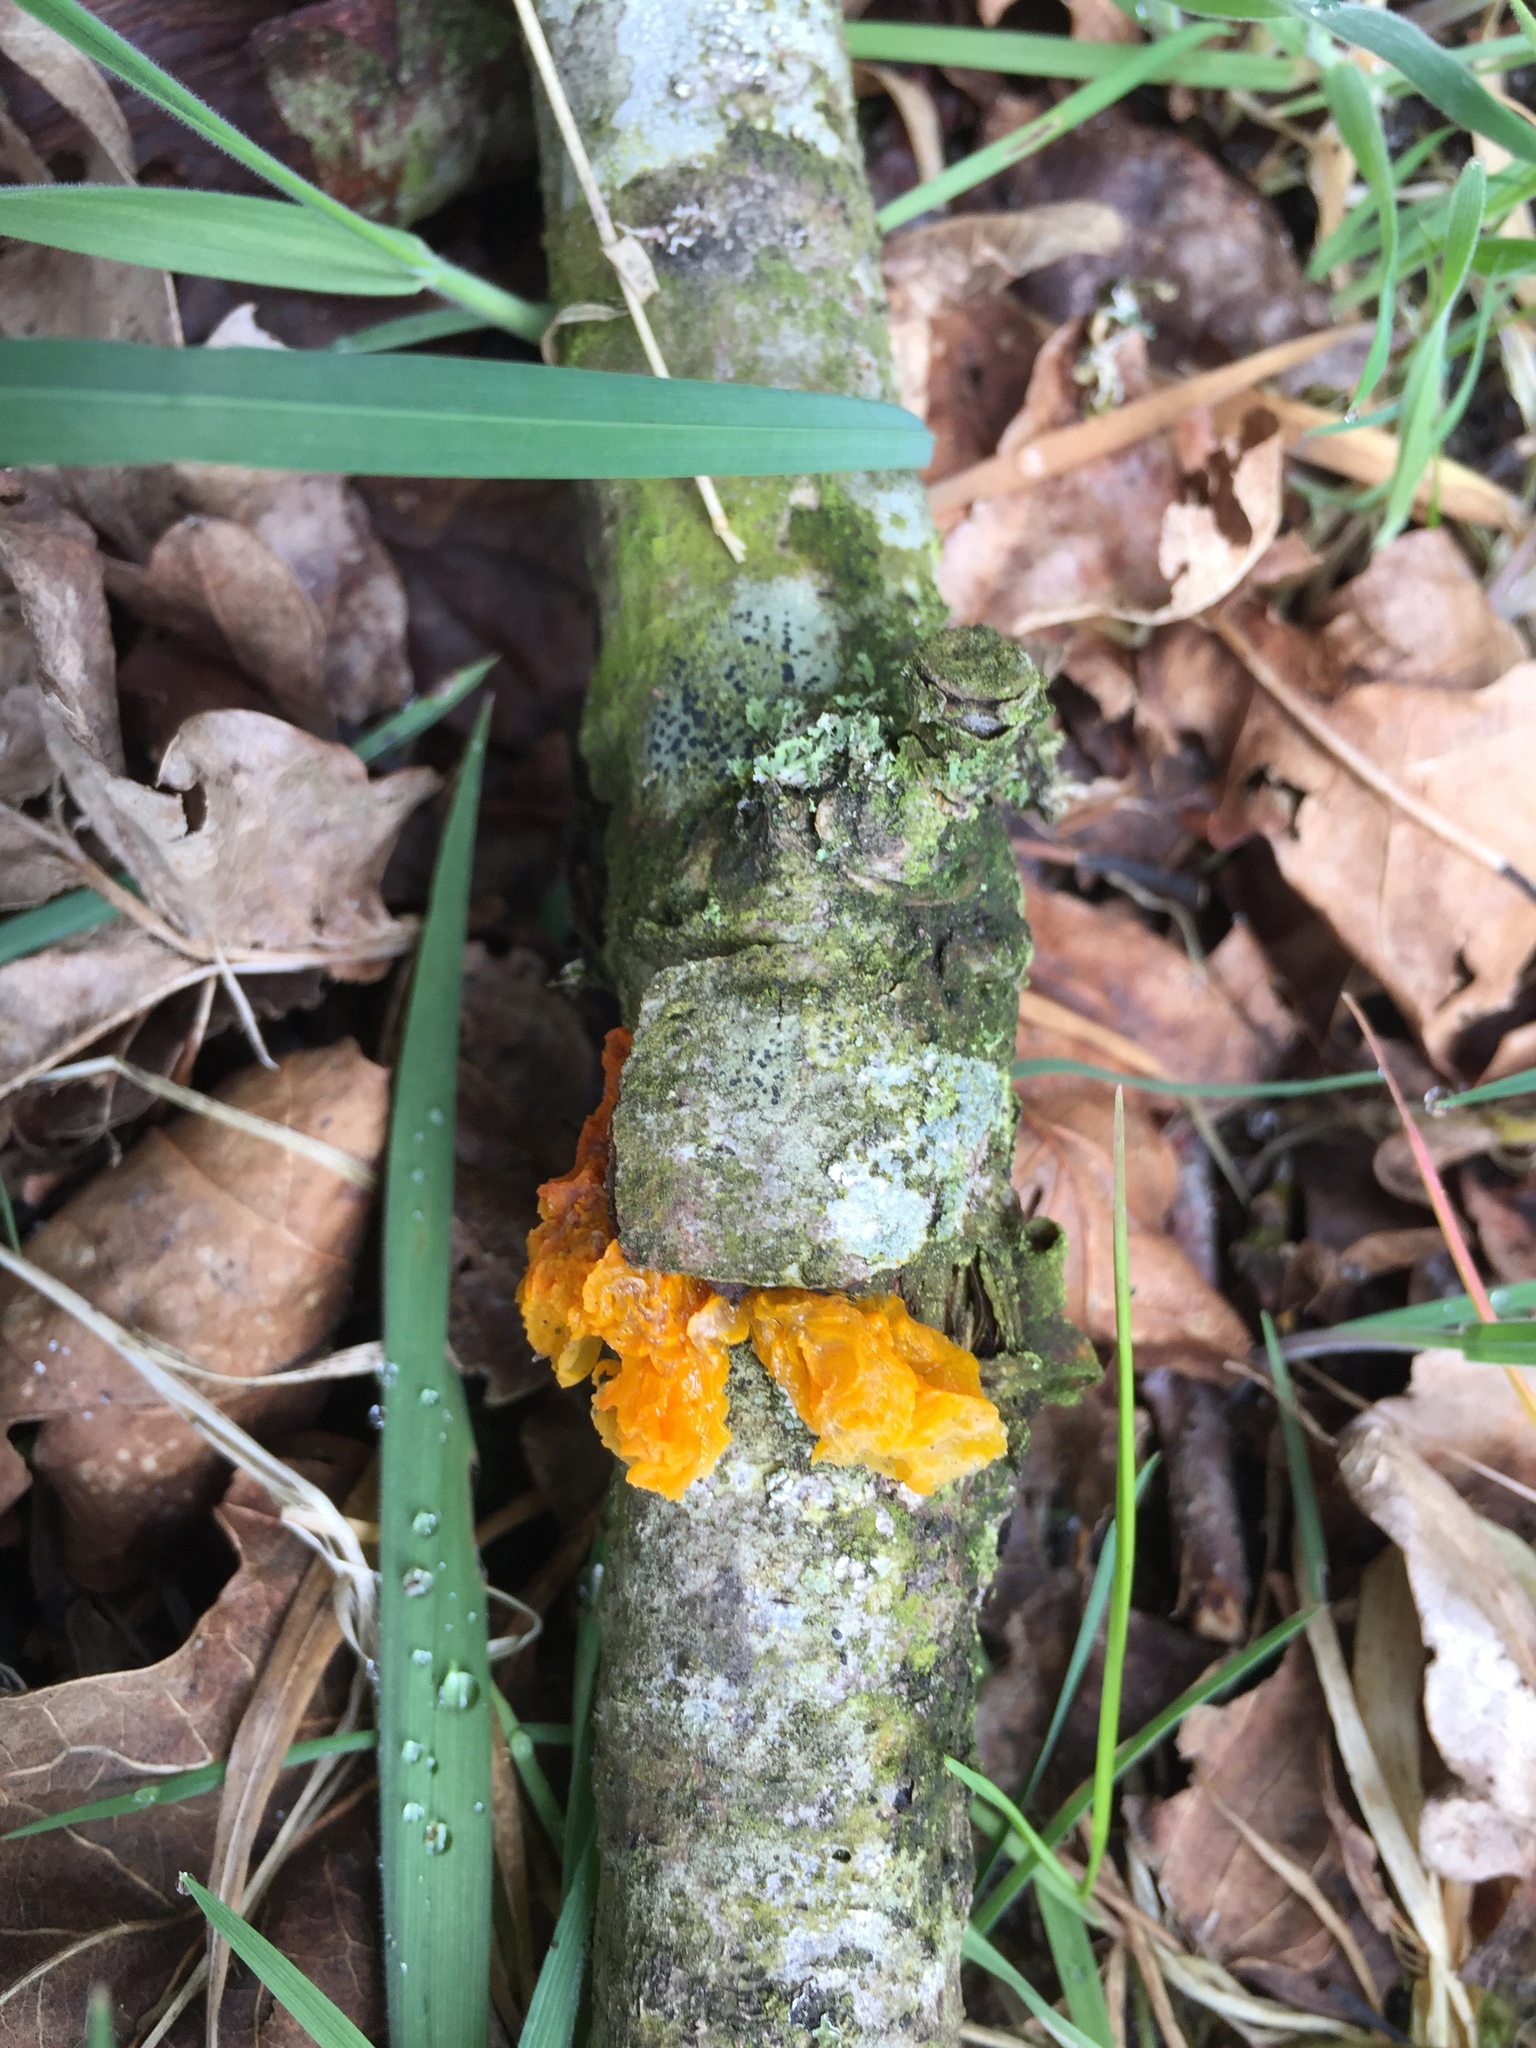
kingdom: Fungi
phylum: Basidiomycota
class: Tremellomycetes
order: Tremellales
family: Tremellaceae
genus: Tremella
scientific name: Tremella mesenterica
